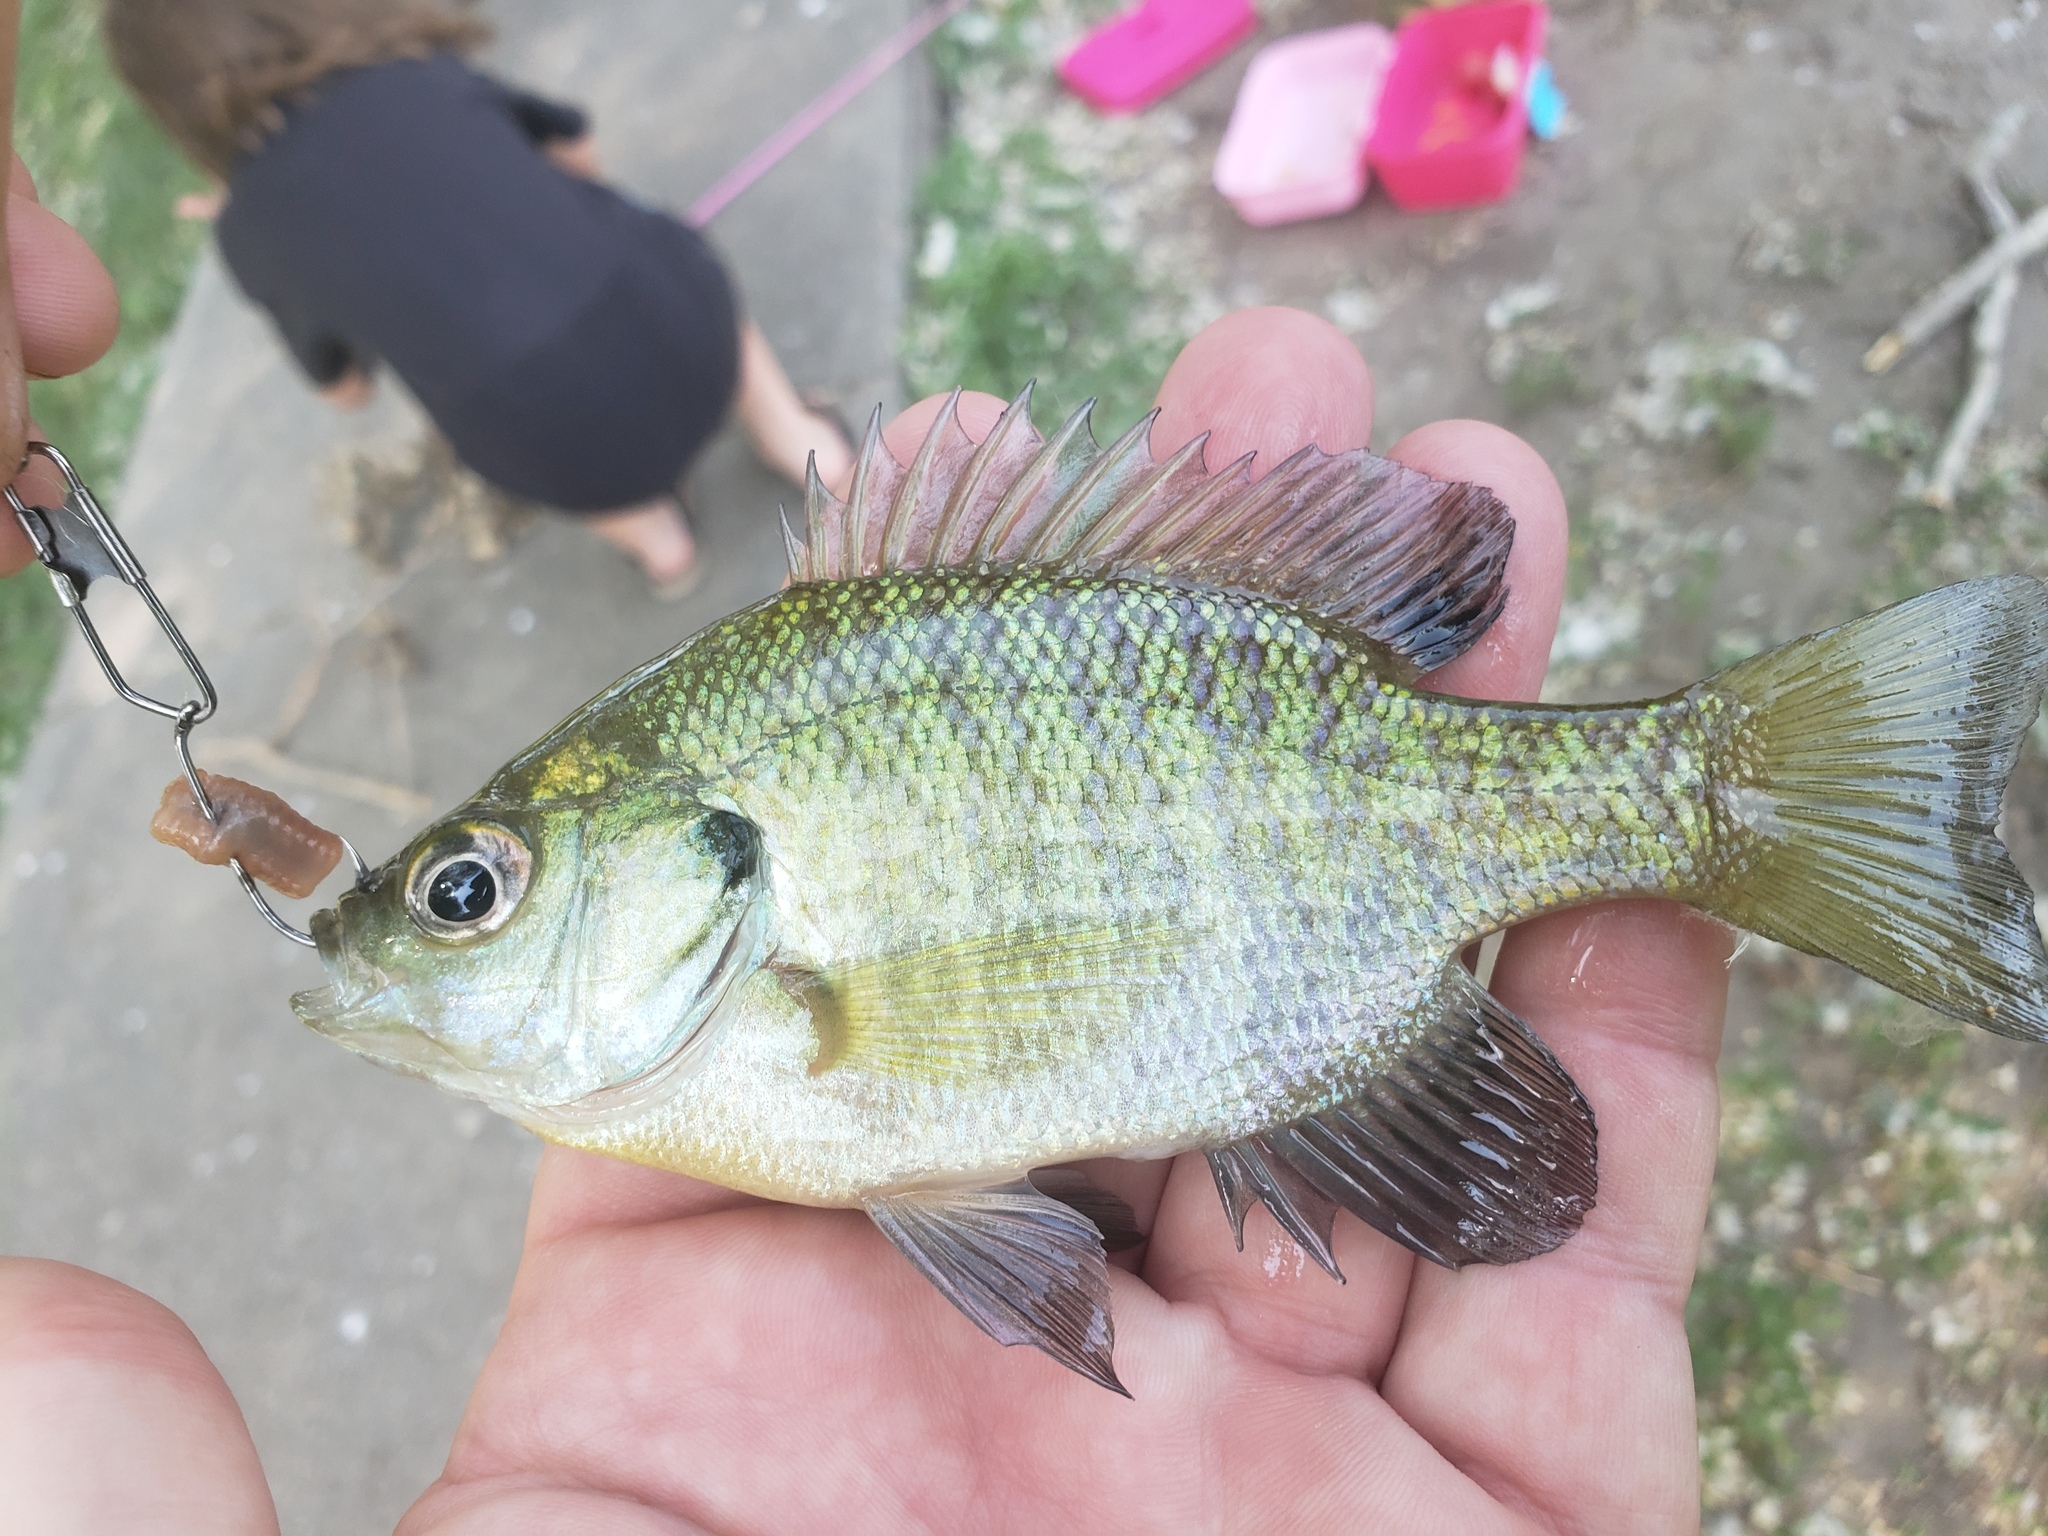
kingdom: Animalia
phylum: Chordata
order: Perciformes
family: Centrarchidae
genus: Lepomis
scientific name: Lepomis macrochirus
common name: Bluegill
